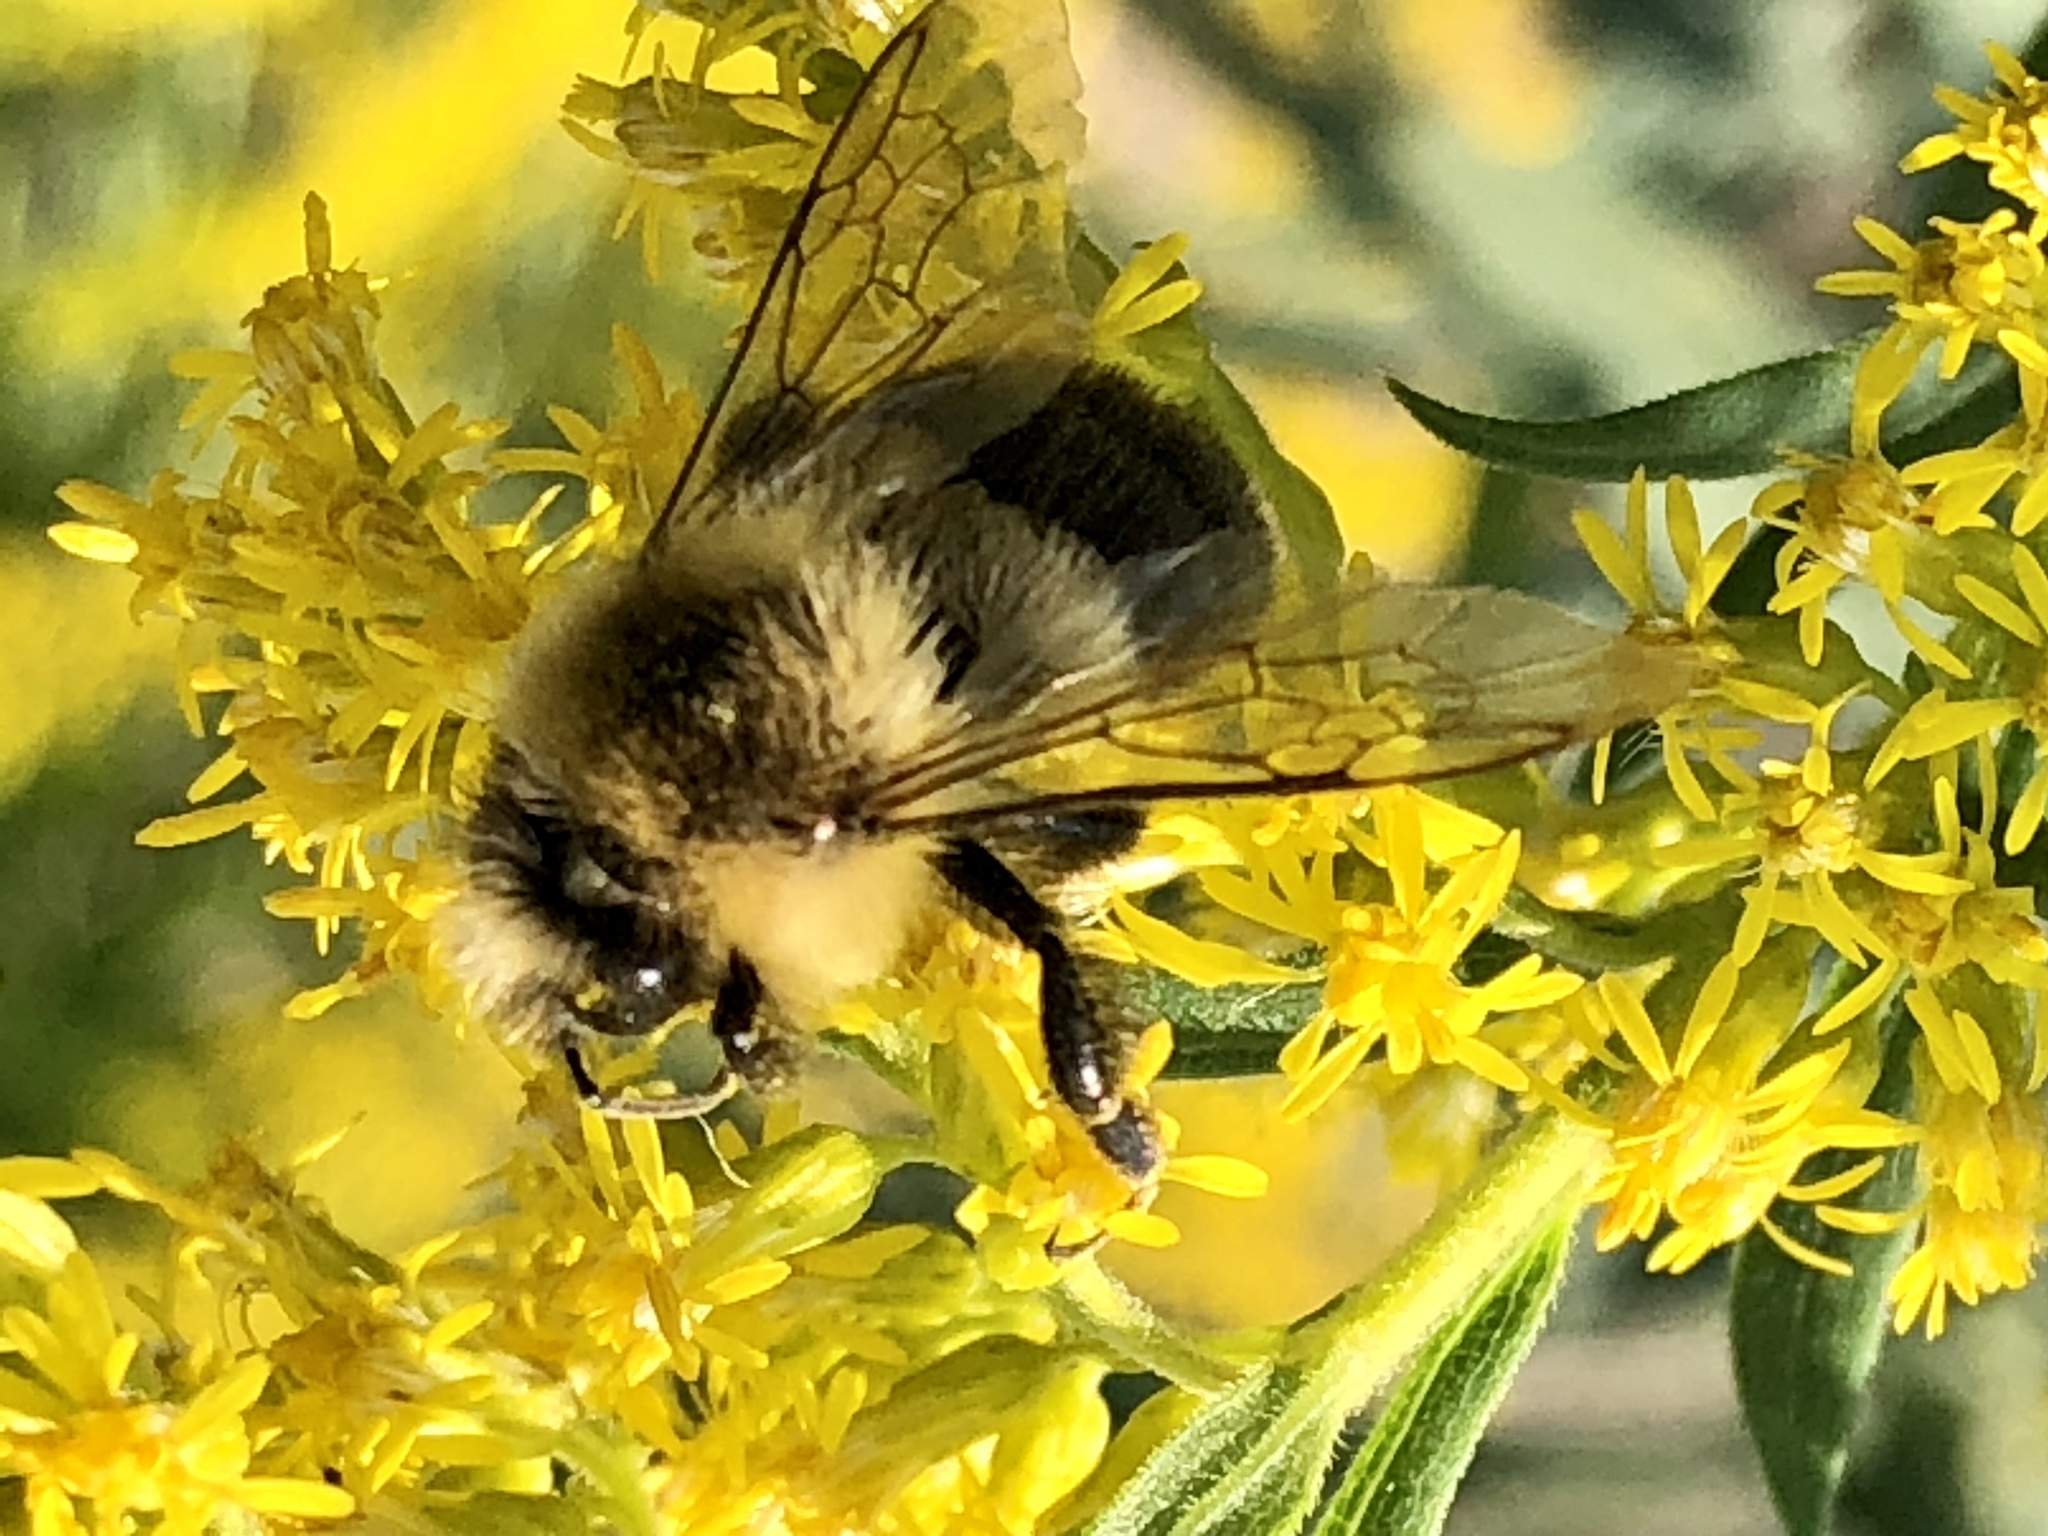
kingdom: Animalia
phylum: Arthropoda
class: Insecta
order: Hymenoptera
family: Apidae
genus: Bombus
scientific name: Bombus impatiens
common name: Common eastern bumble bee
